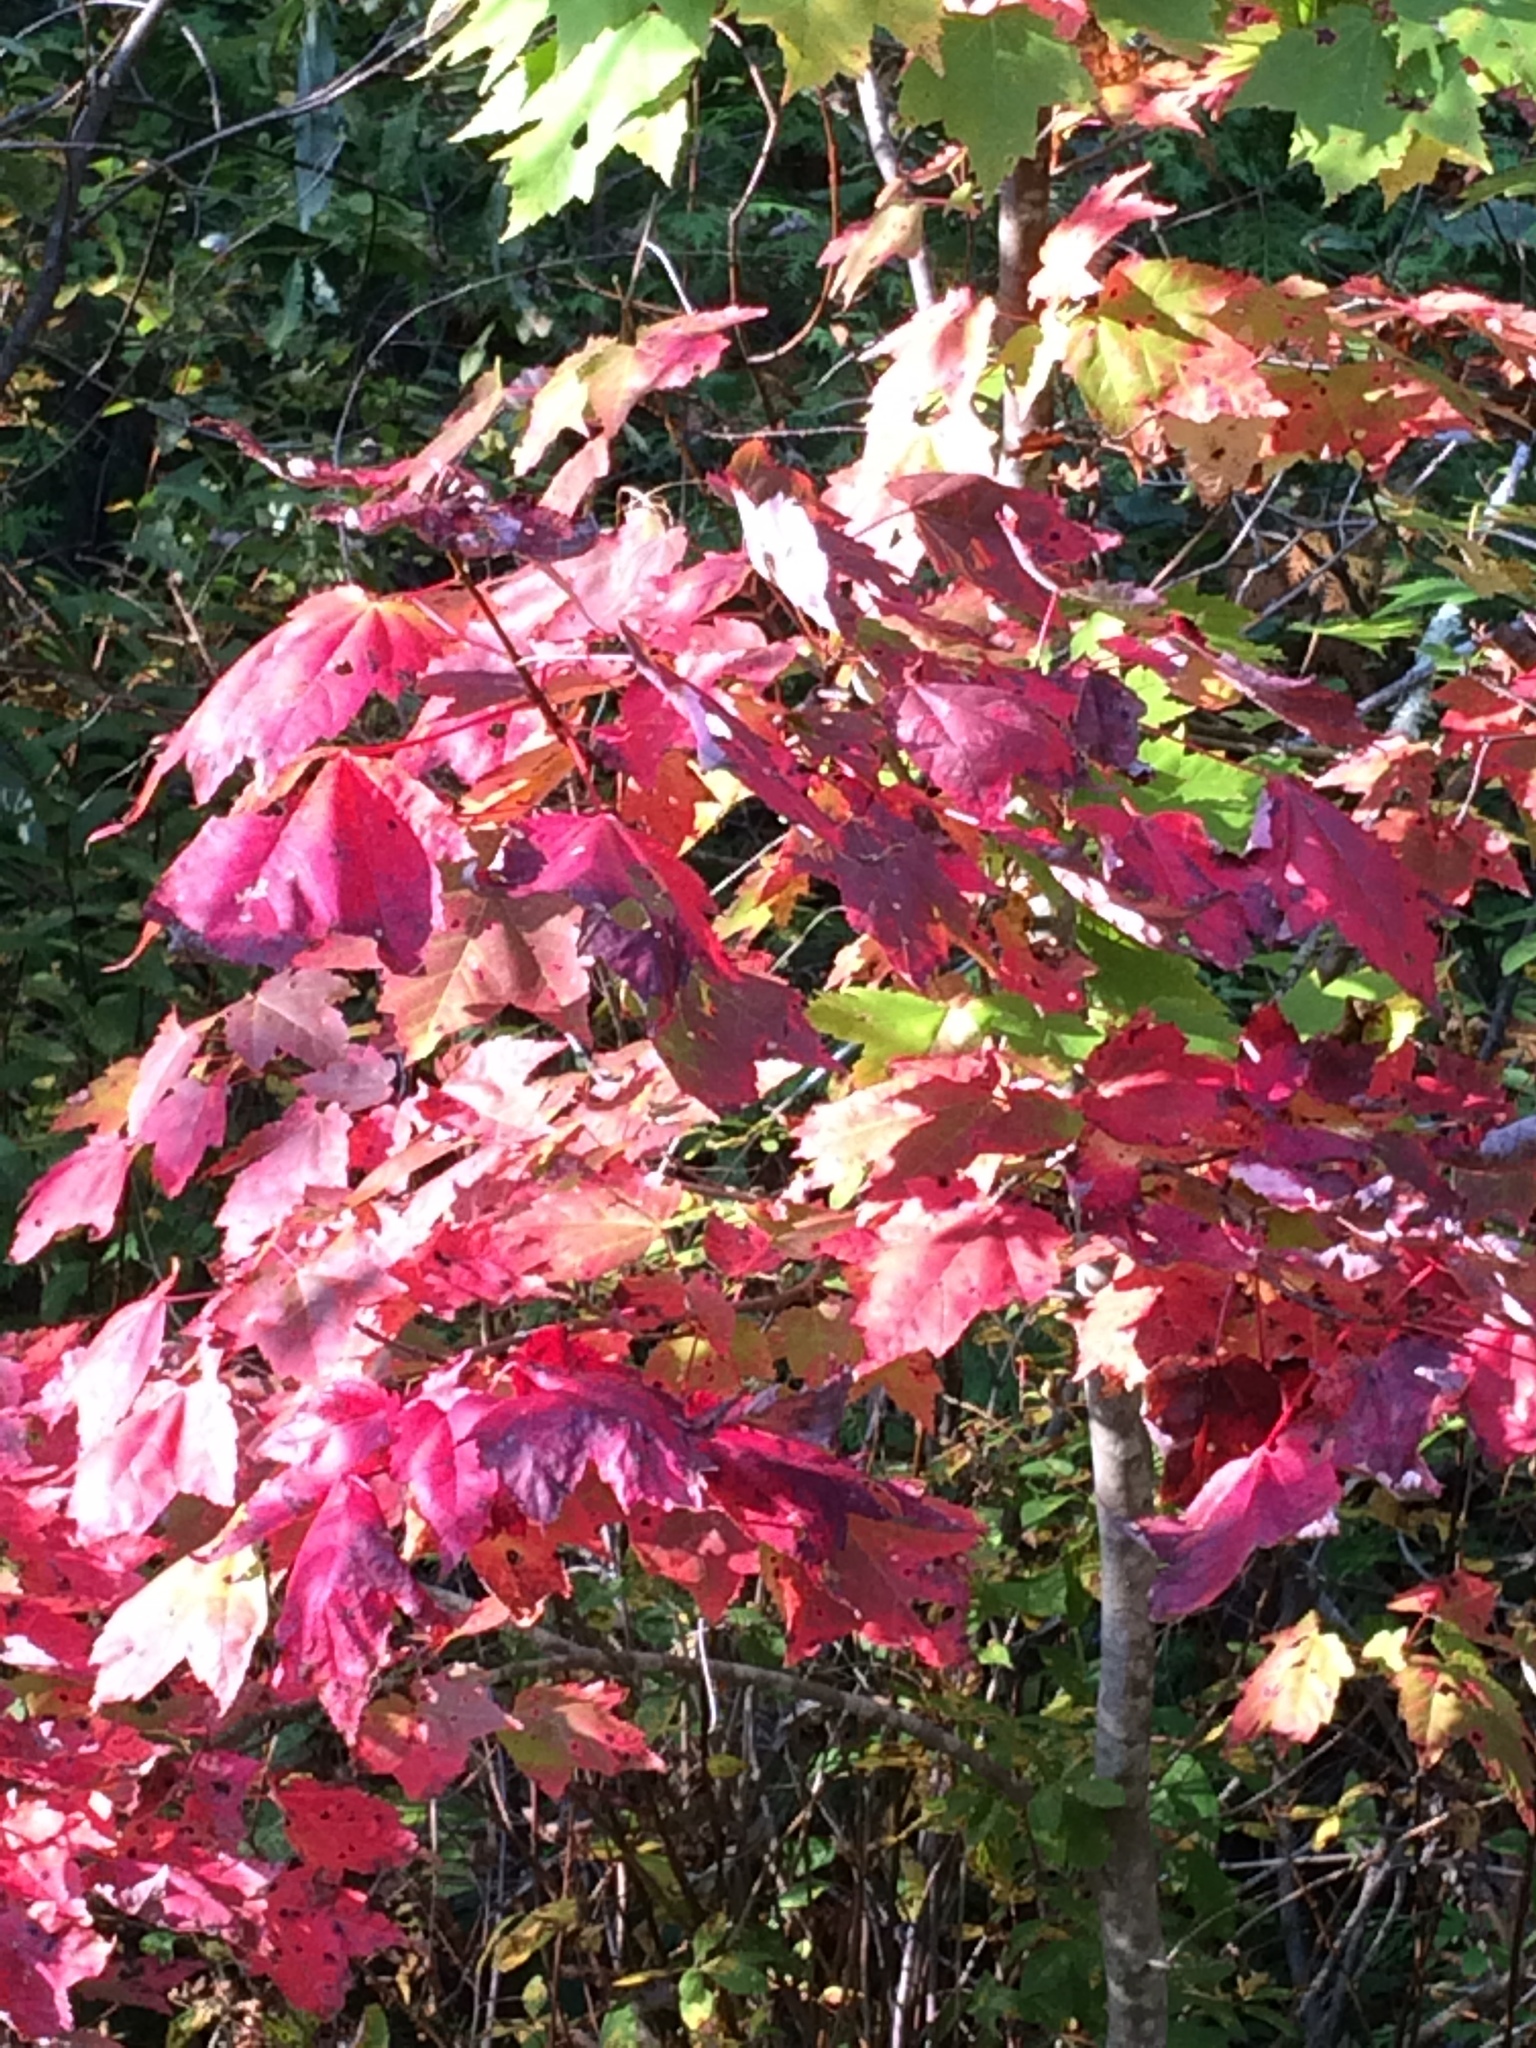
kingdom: Plantae
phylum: Tracheophyta
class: Magnoliopsida
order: Sapindales
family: Sapindaceae
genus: Acer
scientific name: Acer rubrum
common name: Red maple
